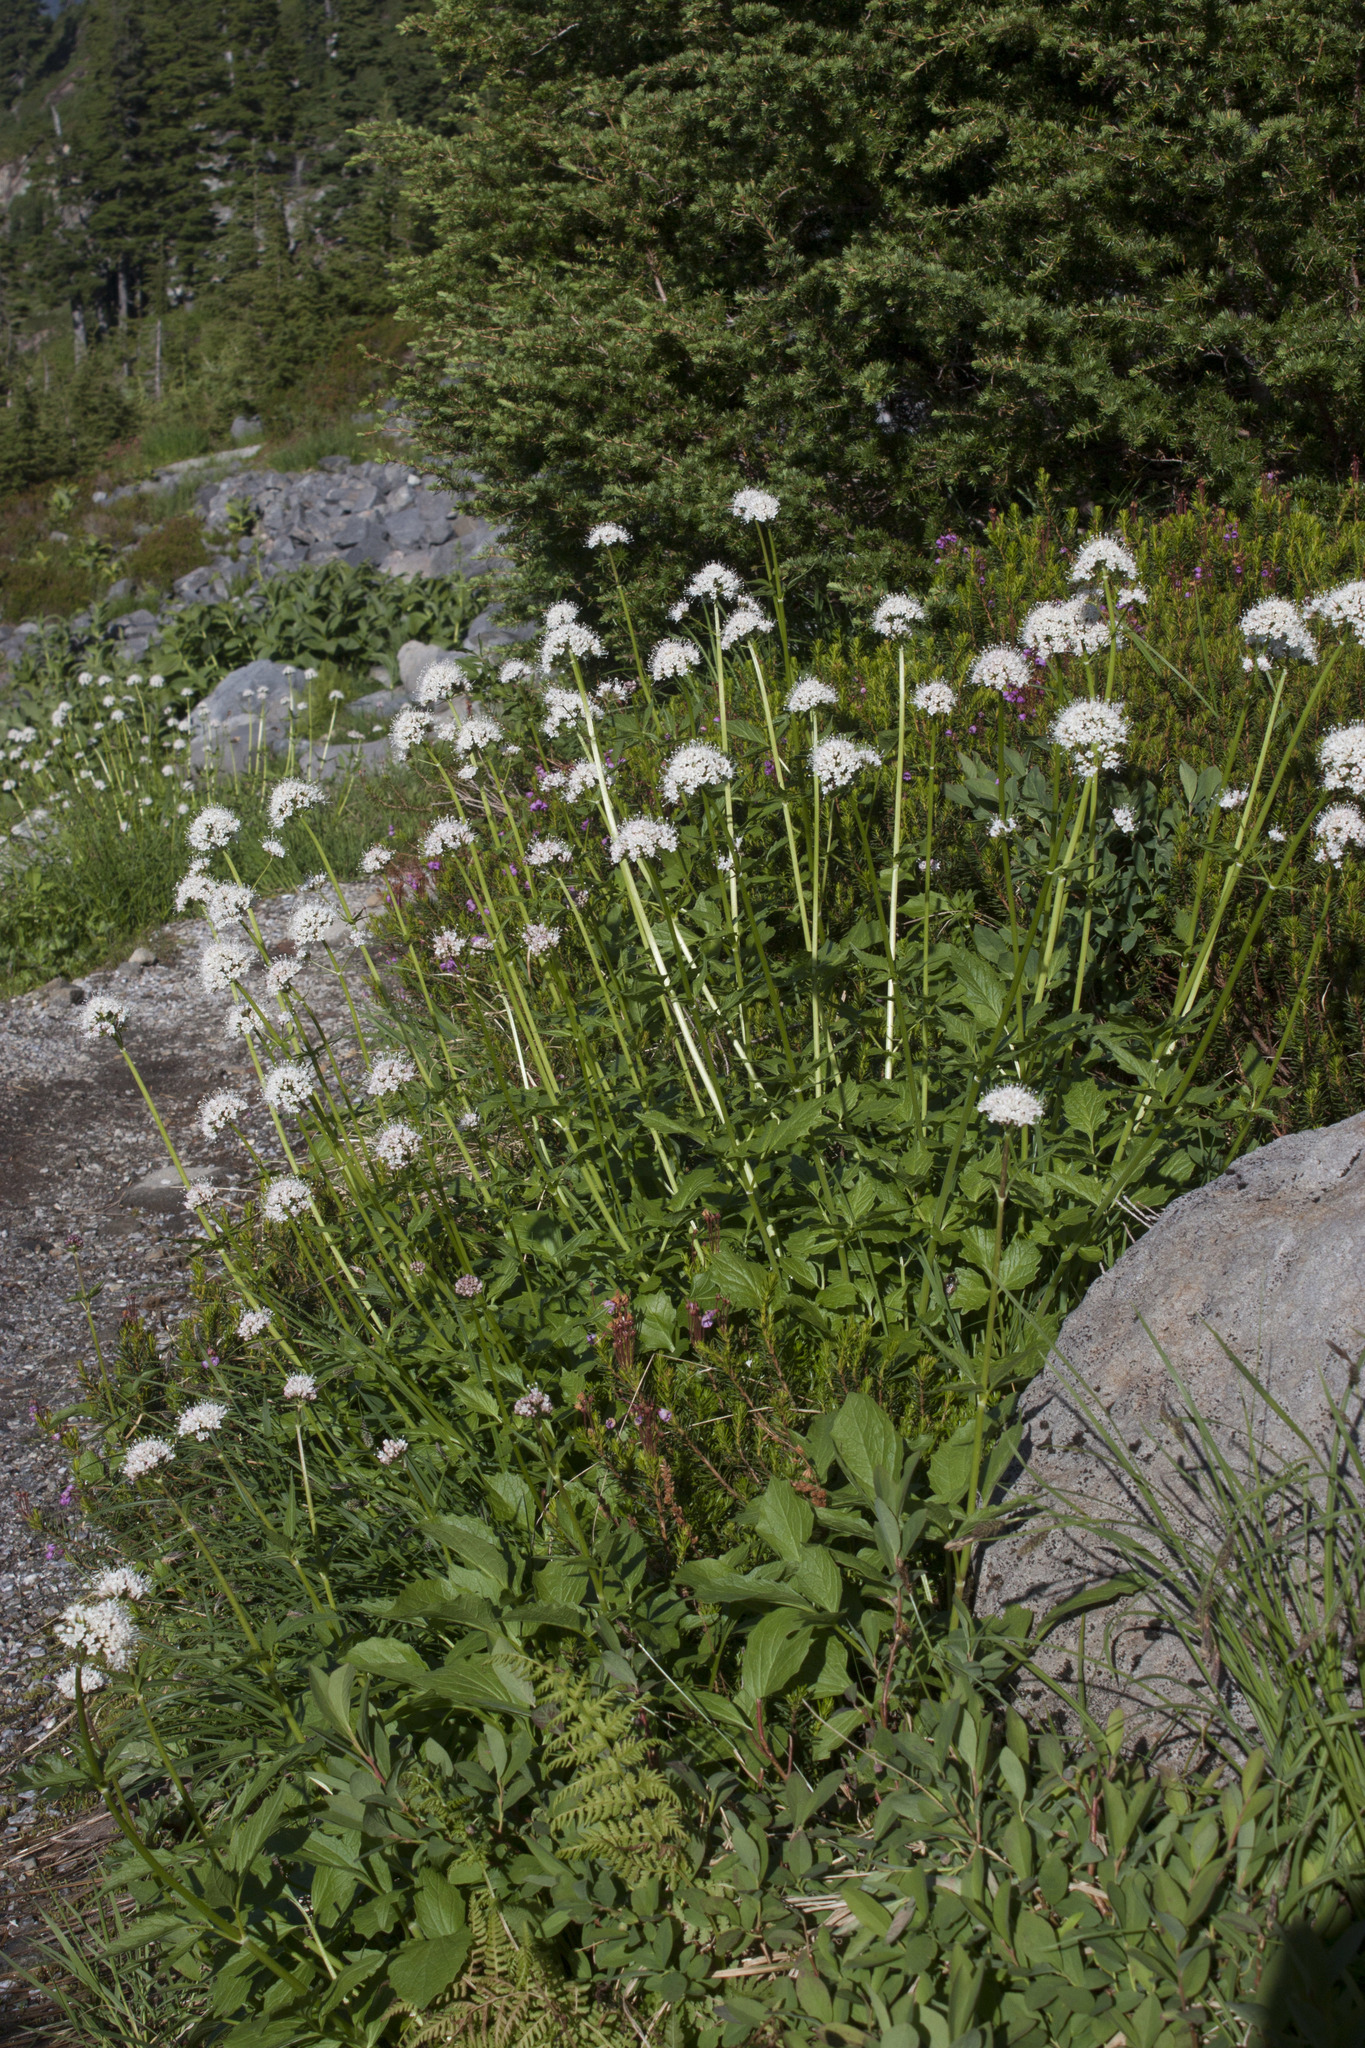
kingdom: Plantae
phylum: Tracheophyta
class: Magnoliopsida
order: Dipsacales
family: Caprifoliaceae
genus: Valeriana
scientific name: Valeriana sitchensis
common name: Pacific valerian
